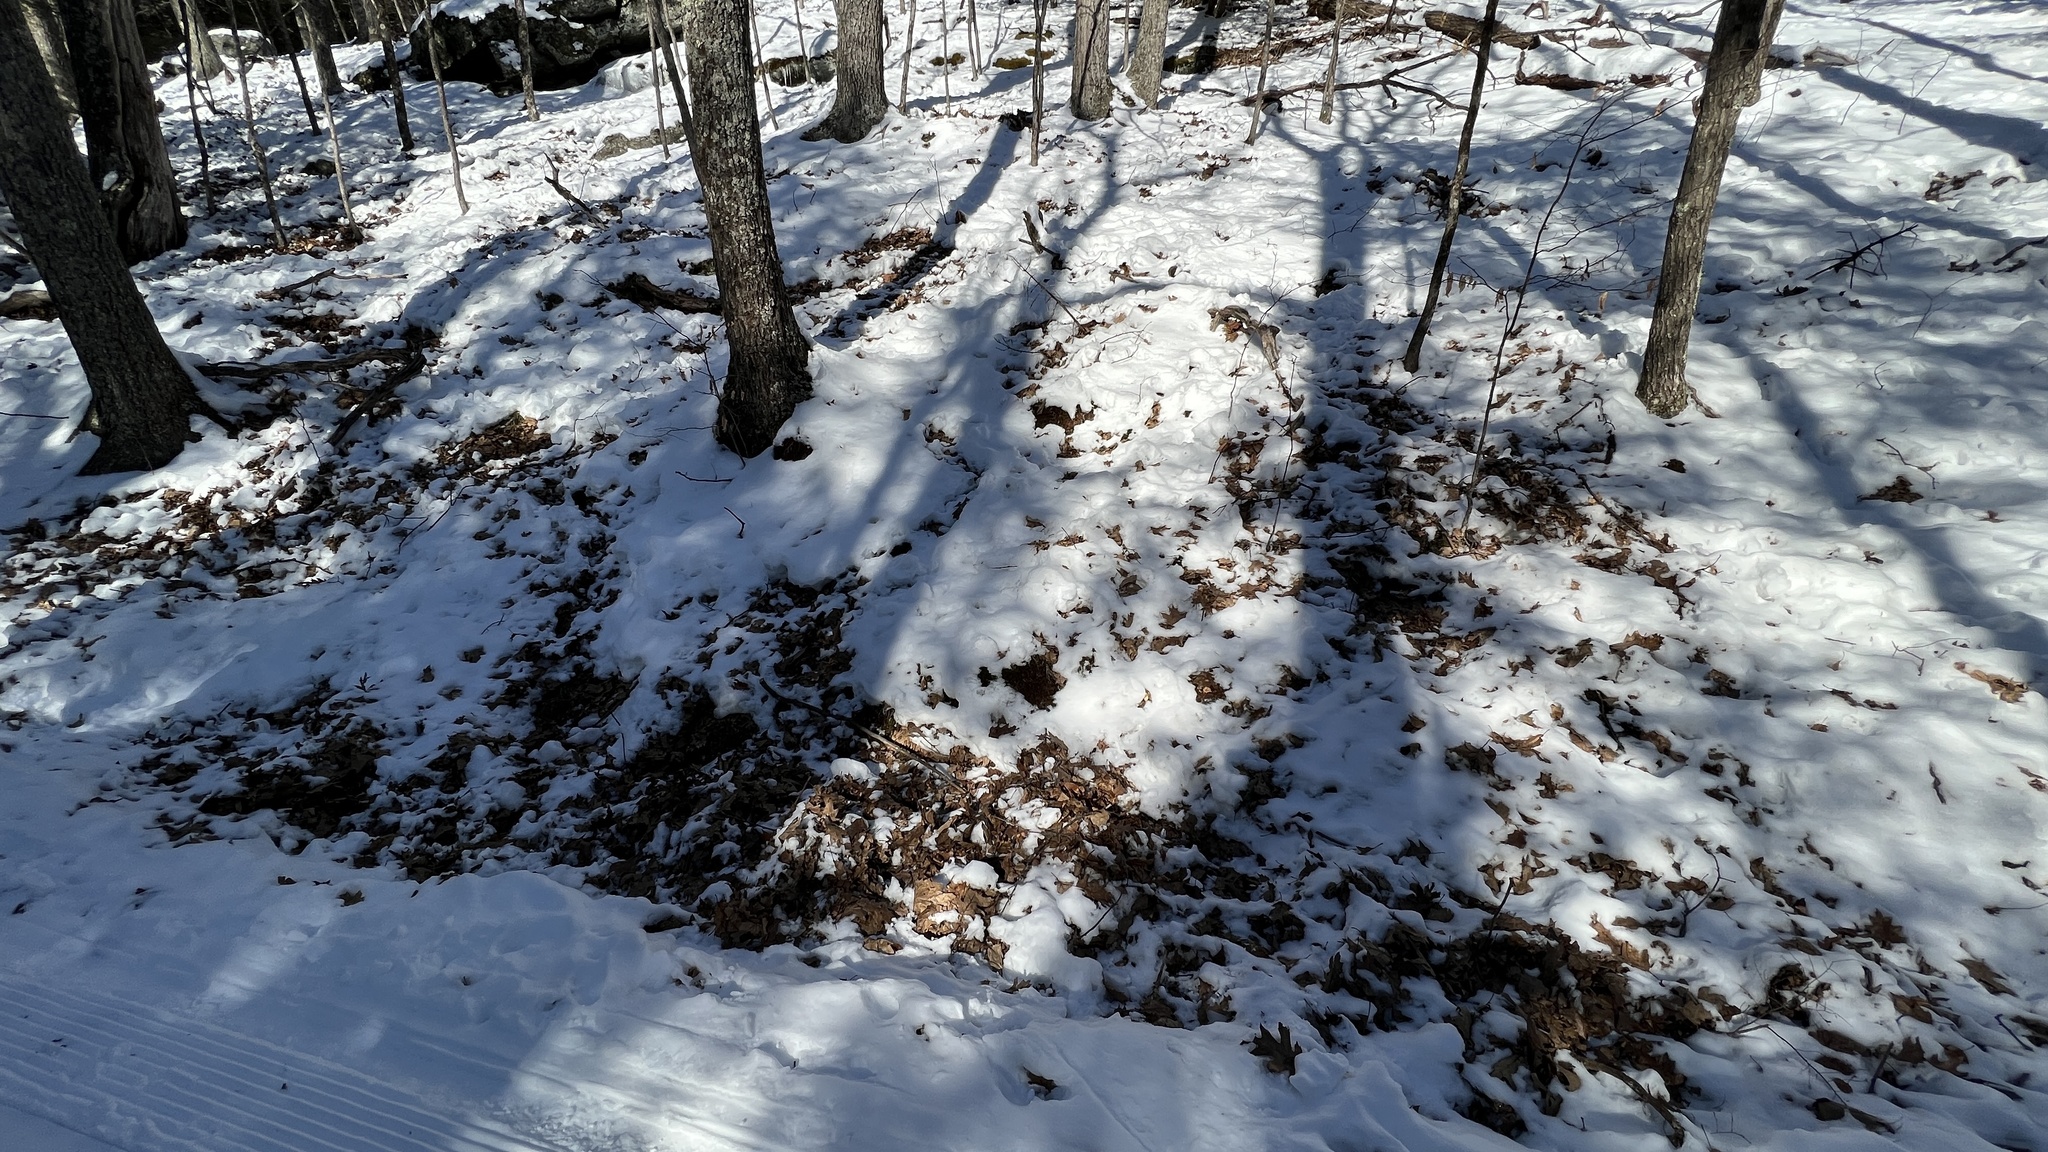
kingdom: Animalia
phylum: Chordata
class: Mammalia
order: Artiodactyla
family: Cervidae
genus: Odocoileus
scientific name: Odocoileus virginianus
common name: White-tailed deer
